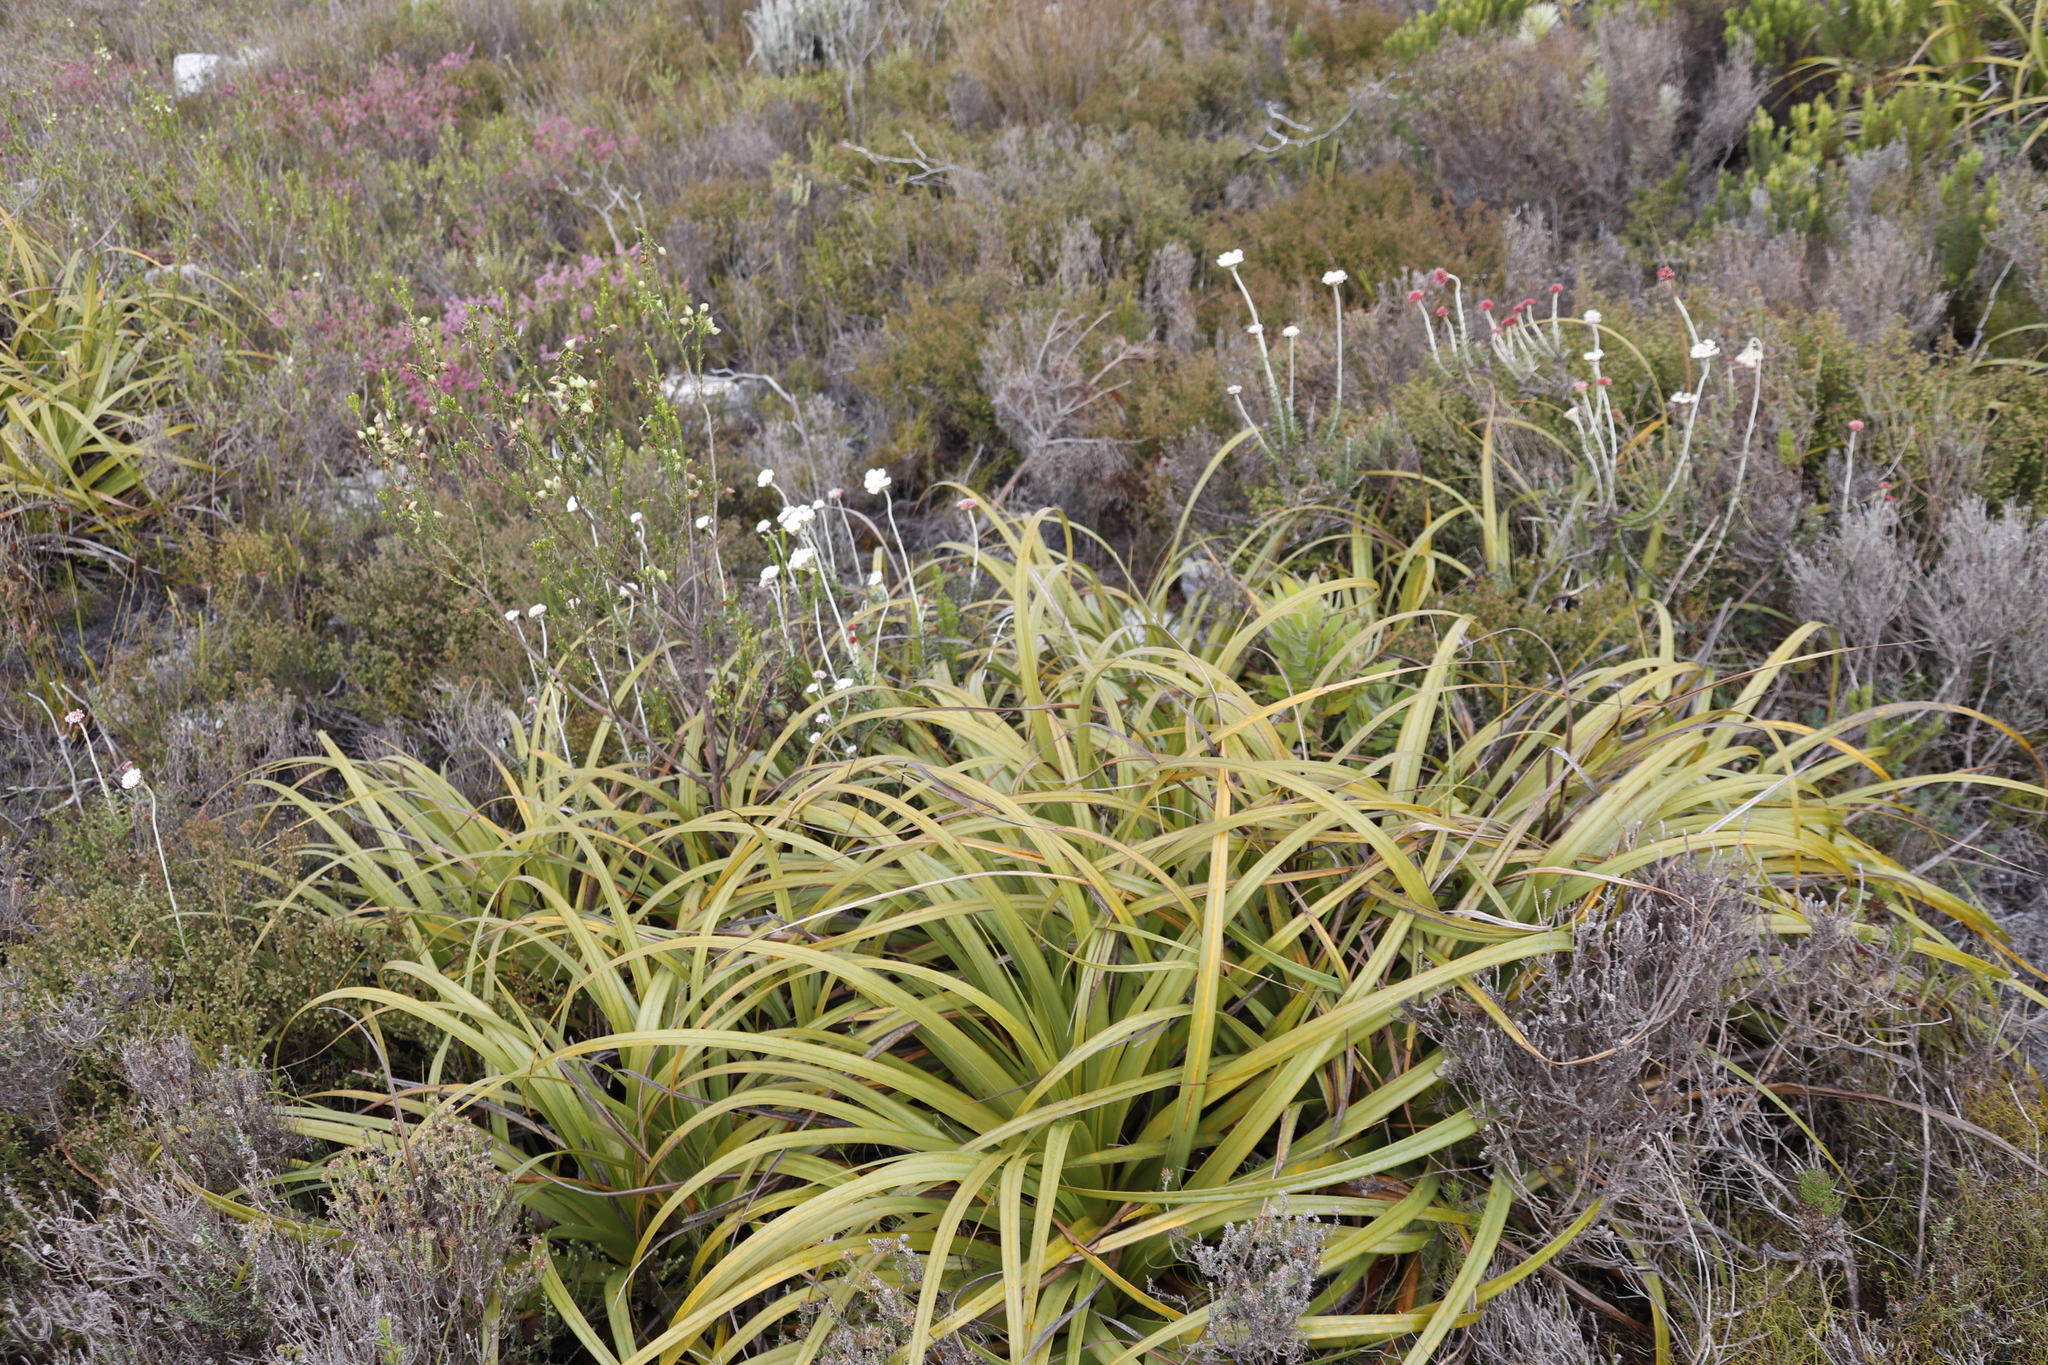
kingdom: Plantae
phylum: Tracheophyta
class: Magnoliopsida
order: Asterales
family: Asteraceae
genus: Anaxeton
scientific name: Anaxeton arborescens
